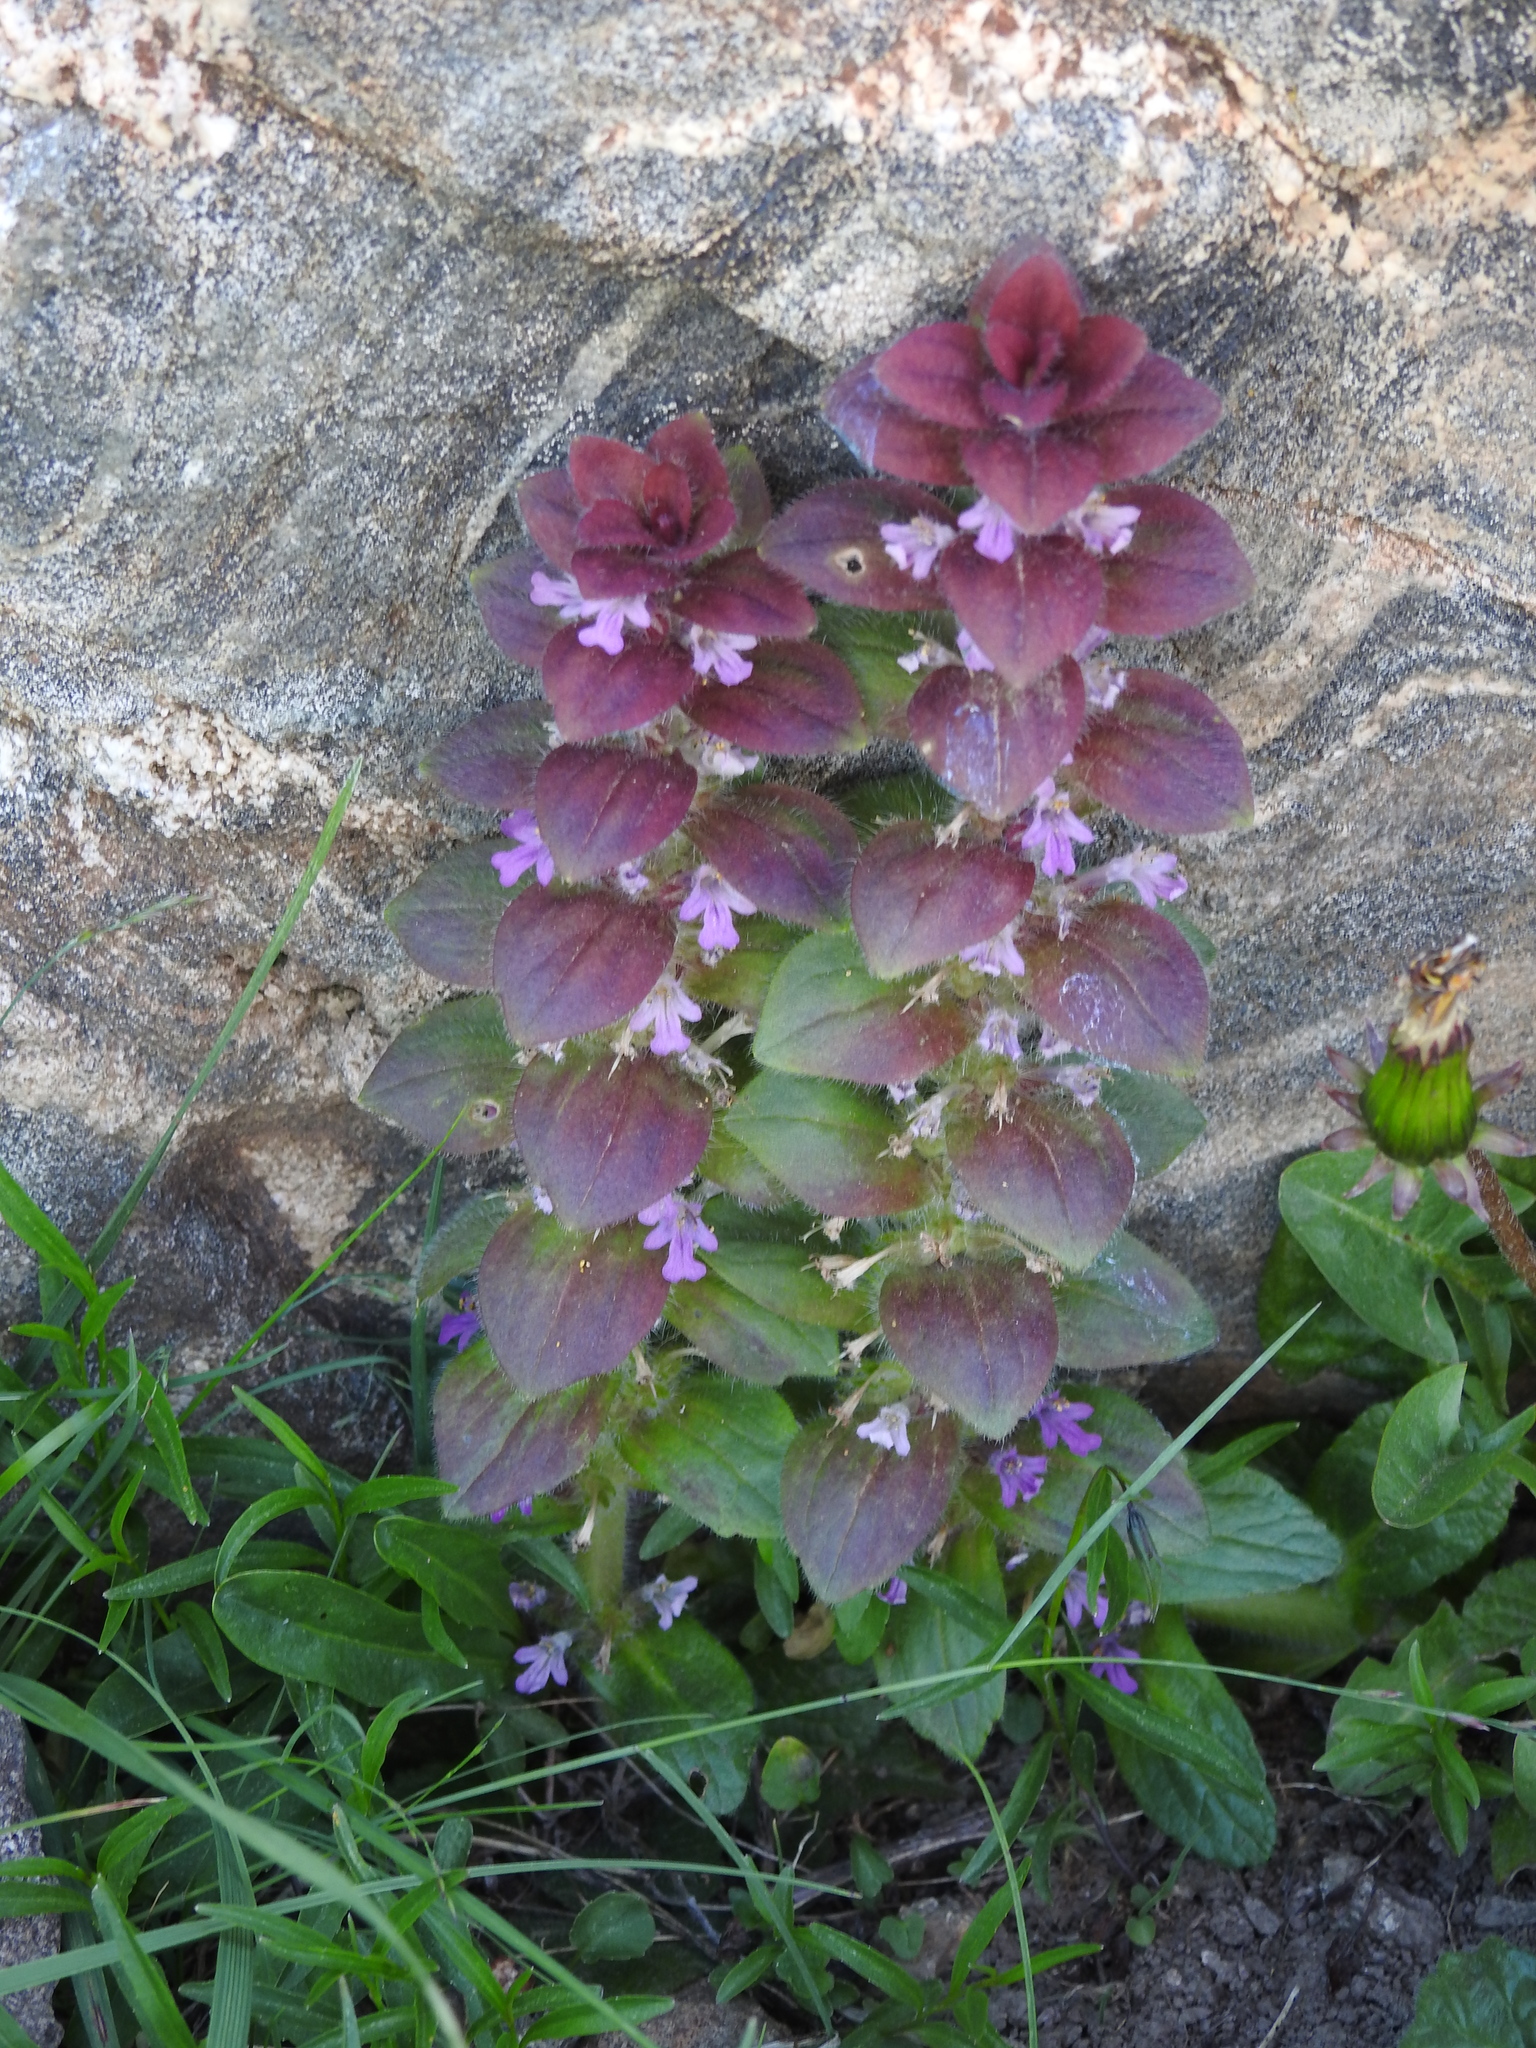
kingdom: Plantae
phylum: Tracheophyta
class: Magnoliopsida
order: Lamiales
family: Lamiaceae
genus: Ajuga
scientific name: Ajuga pyramidalis
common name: Pyramid bugle
